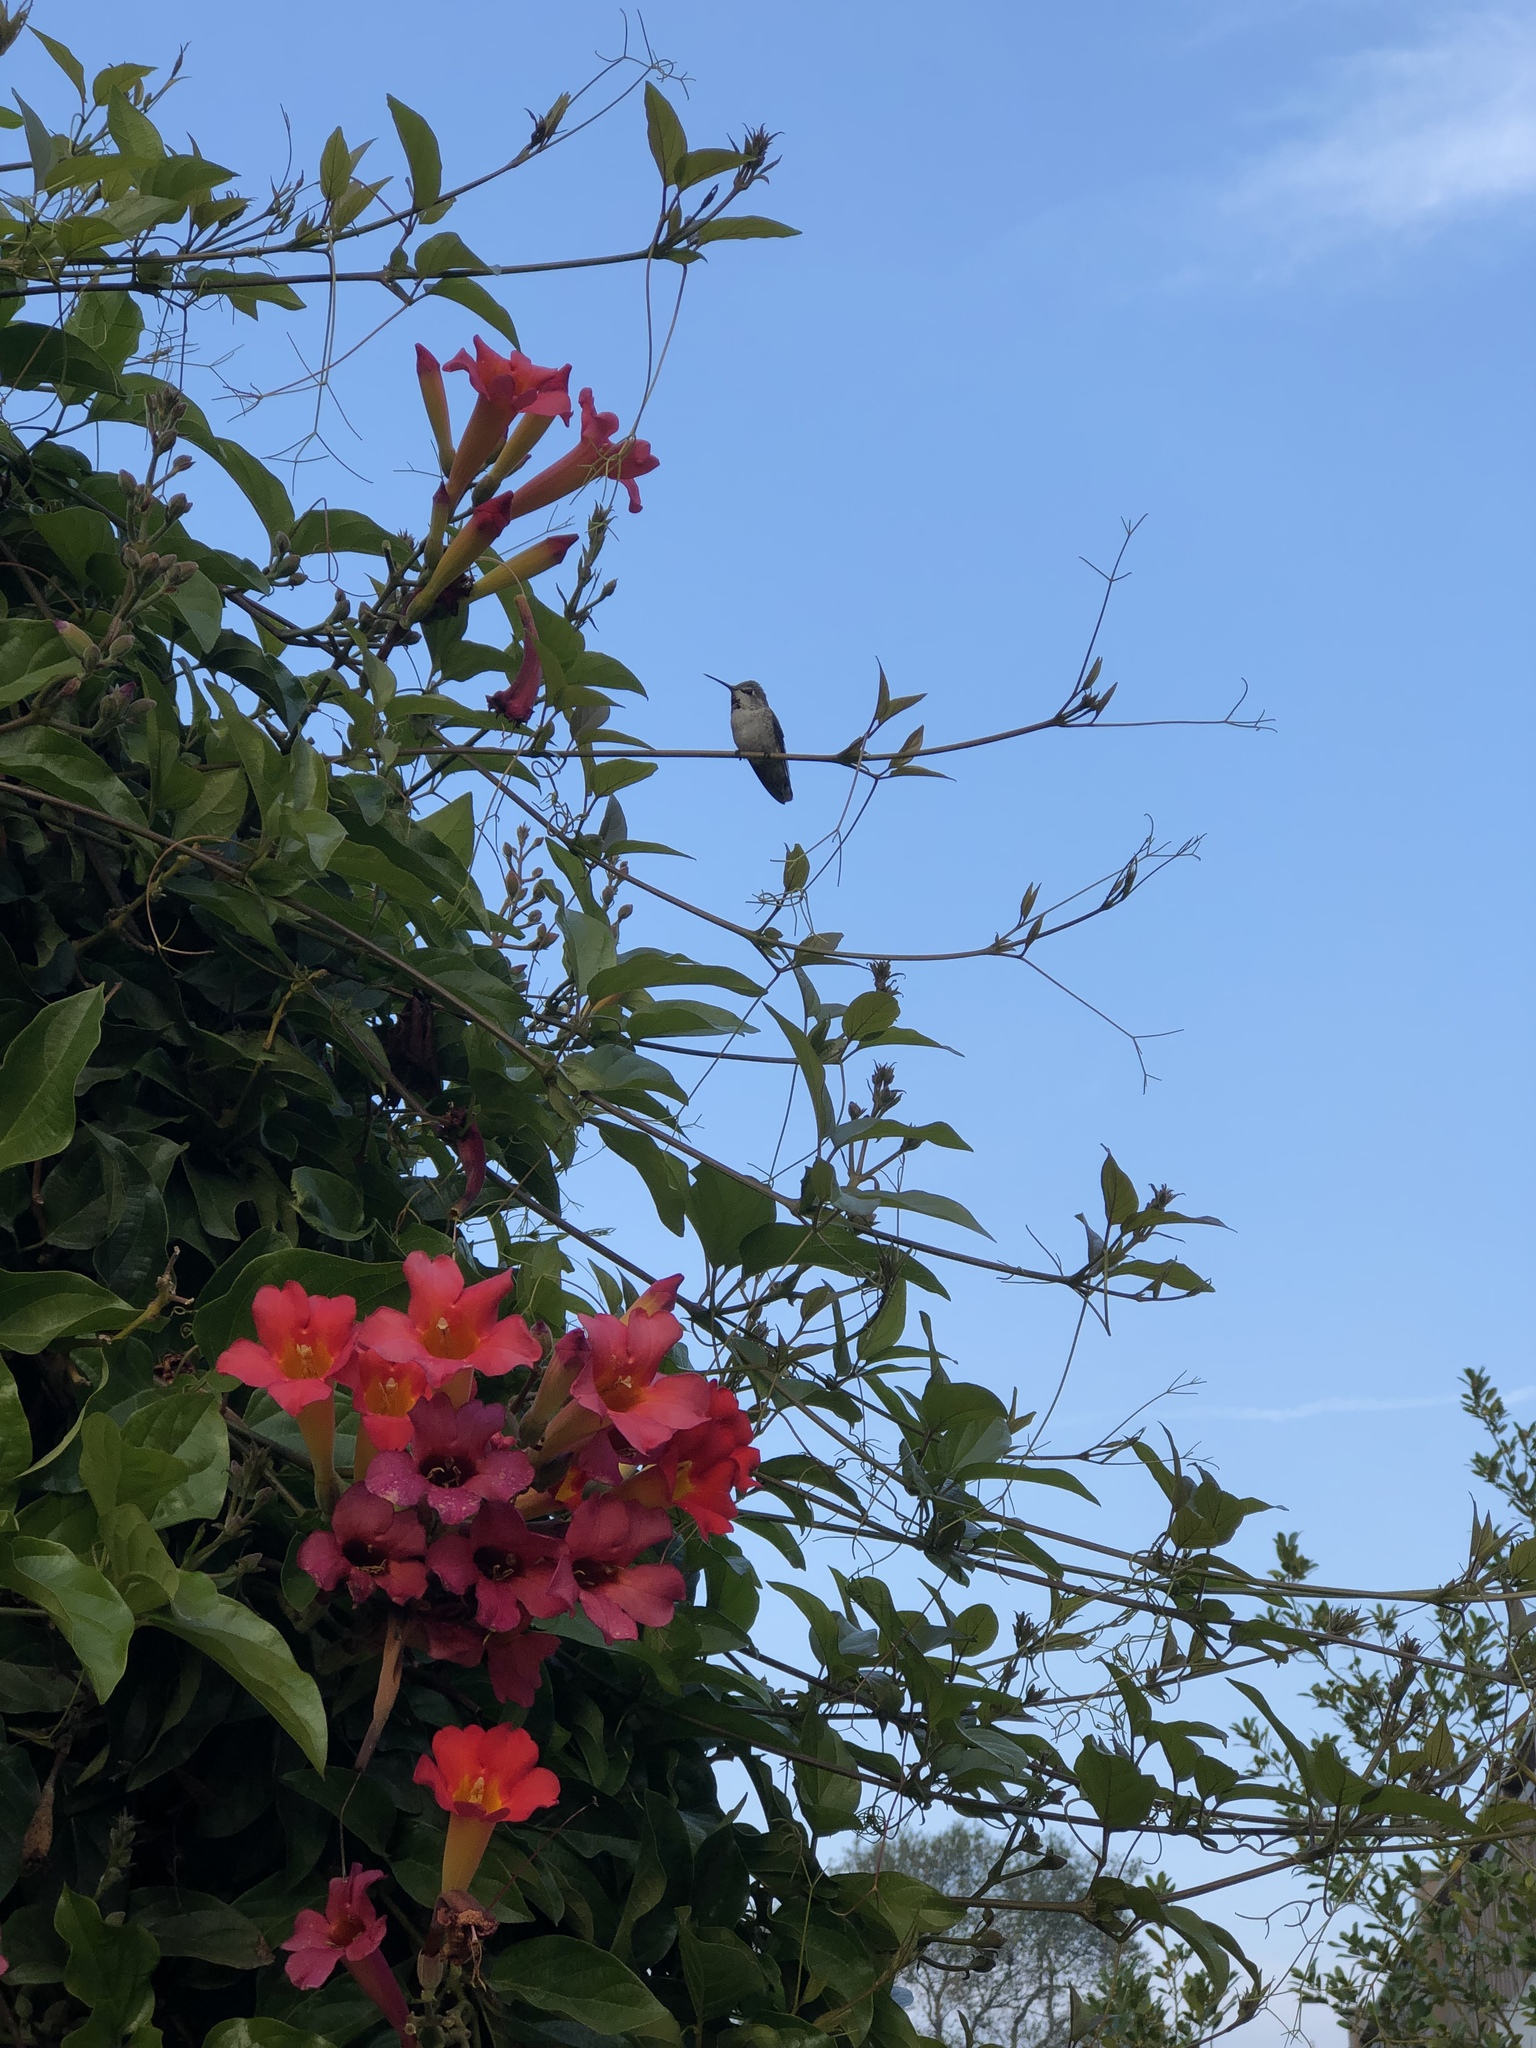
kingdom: Animalia
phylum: Chordata
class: Aves
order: Apodiformes
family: Trochilidae
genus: Calypte
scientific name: Calypte anna
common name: Anna's hummingbird
